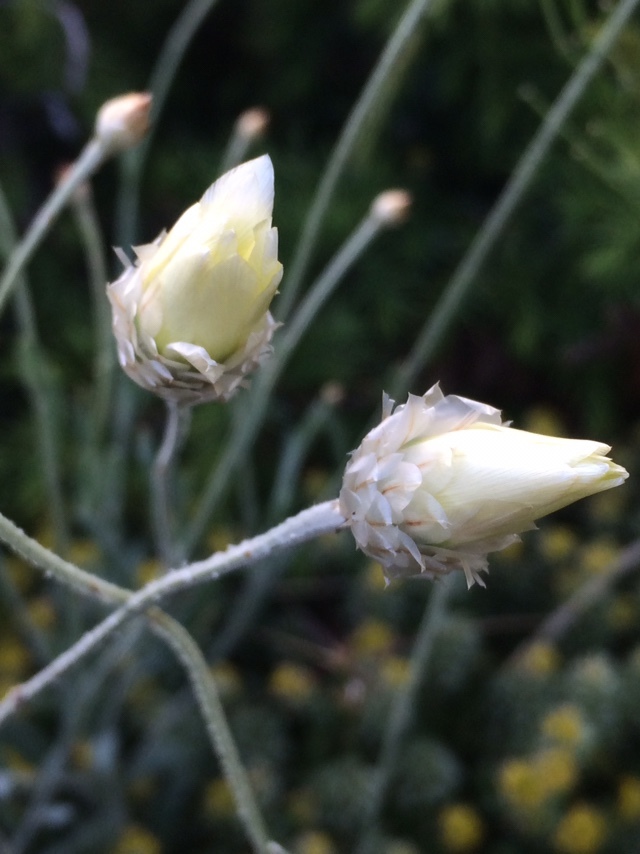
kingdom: Plantae
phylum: Tracheophyta
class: Magnoliopsida
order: Asterales
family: Asteraceae
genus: Xeranthemum
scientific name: Xeranthemum cylindraceum
